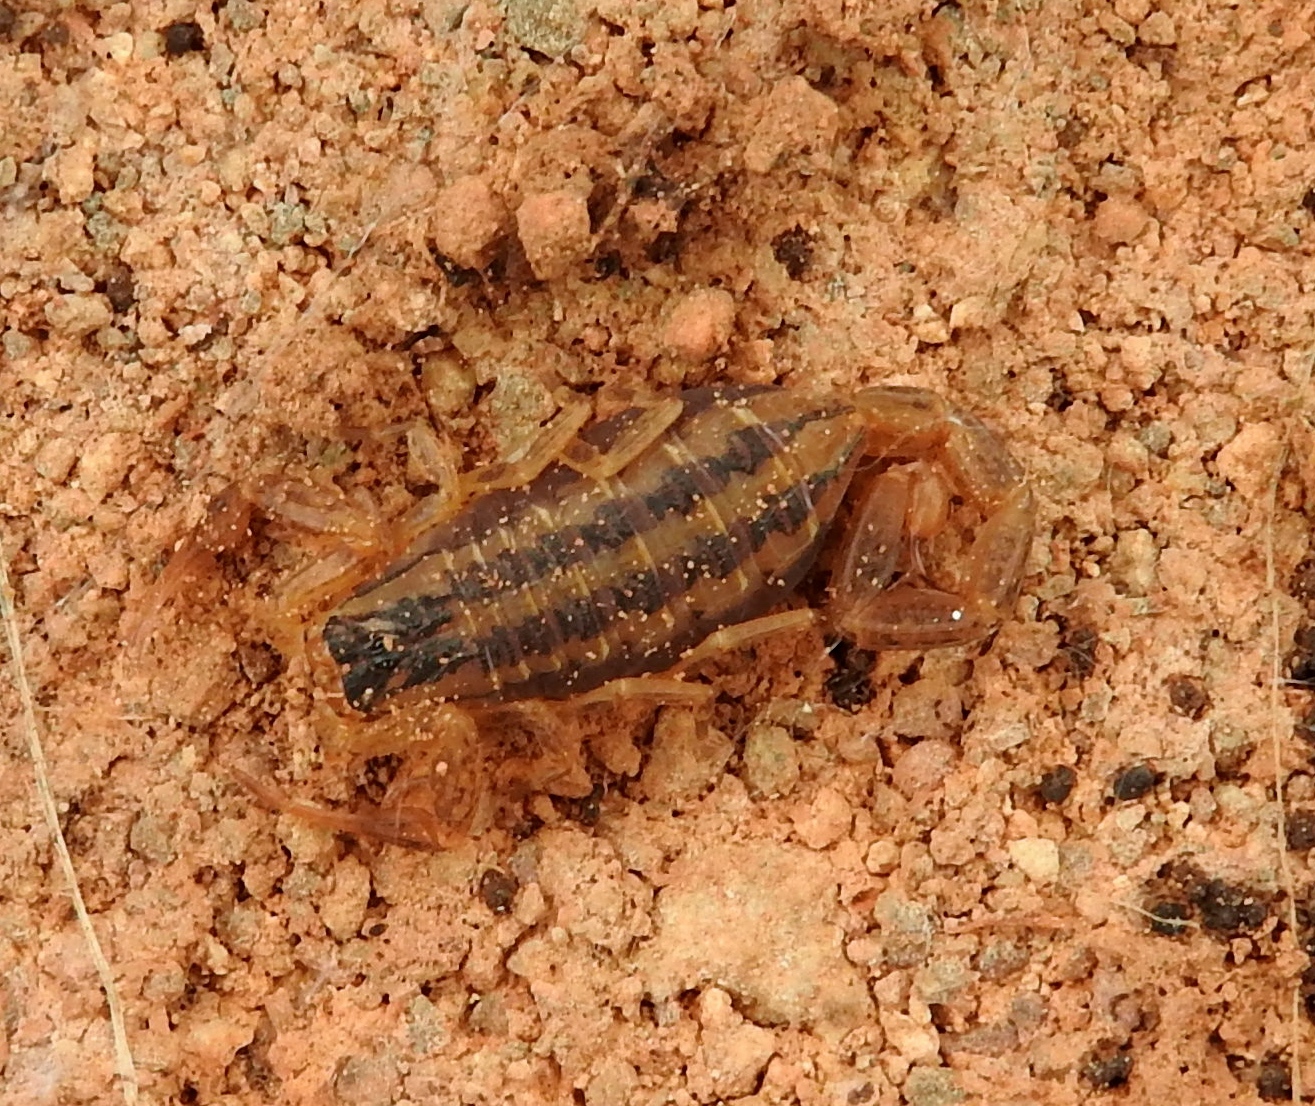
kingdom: Animalia
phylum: Arthropoda
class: Arachnida
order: Scorpiones
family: Buthidae
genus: Centruroides
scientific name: Centruroides baldazoi
